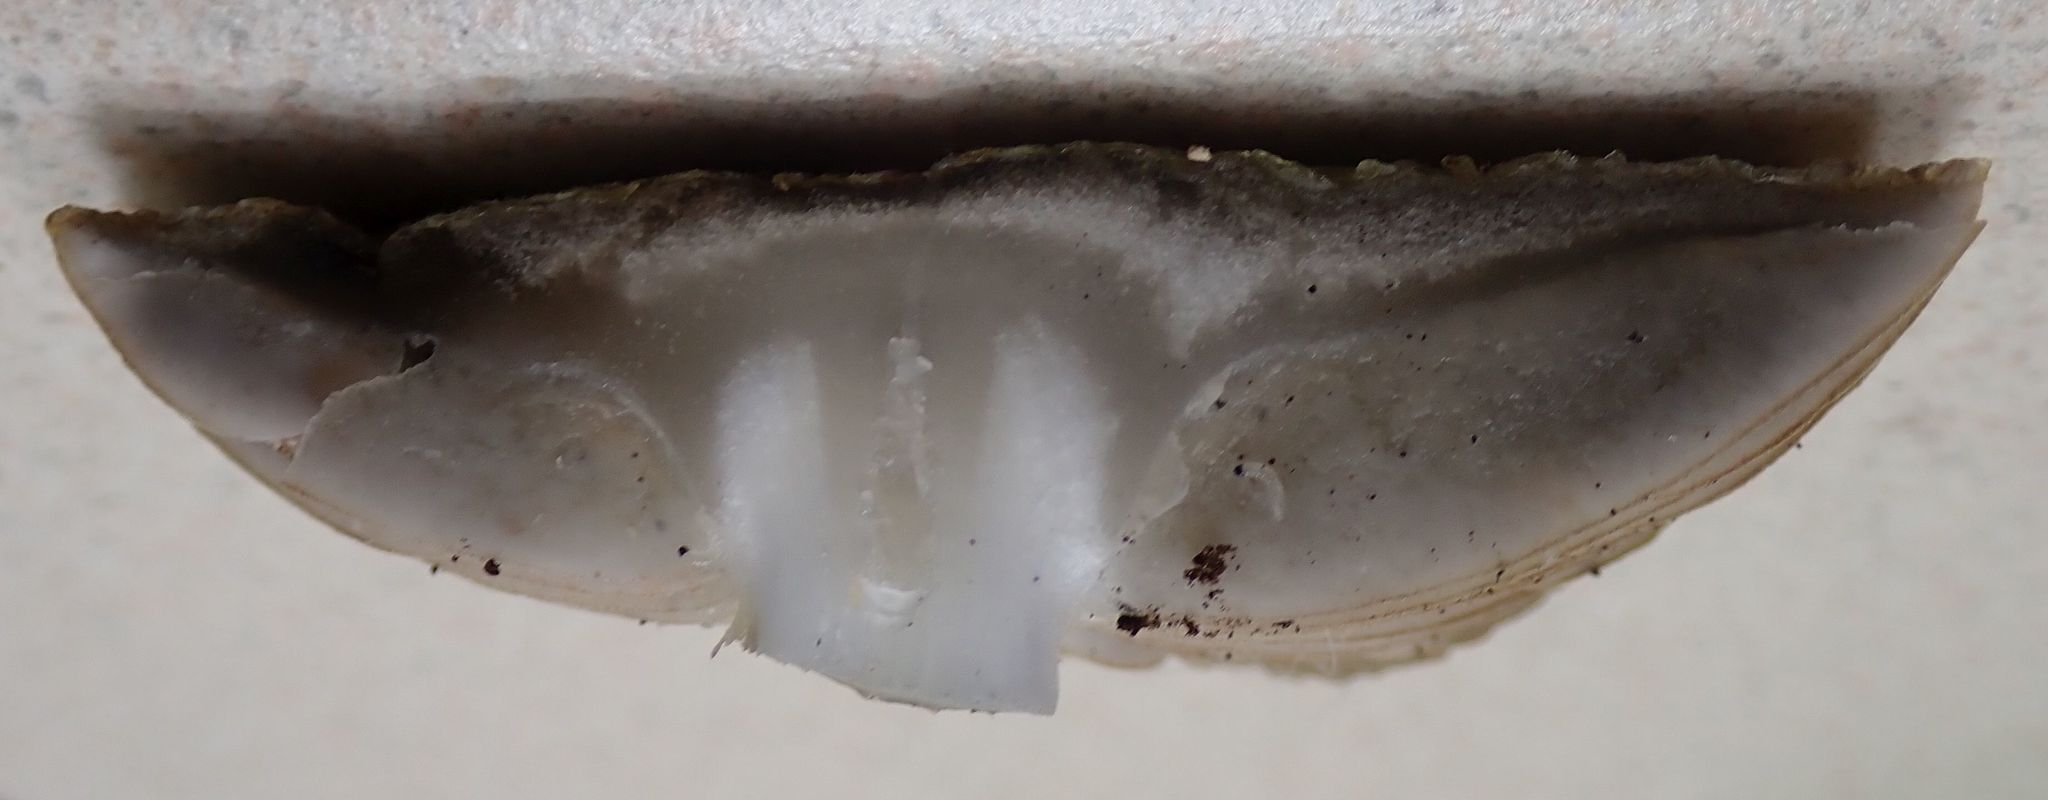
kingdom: Fungi
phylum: Basidiomycota
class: Agaricomycetes
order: Agaricales
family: Physalacriaceae
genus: Hymenopellis
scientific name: Hymenopellis colensoi
